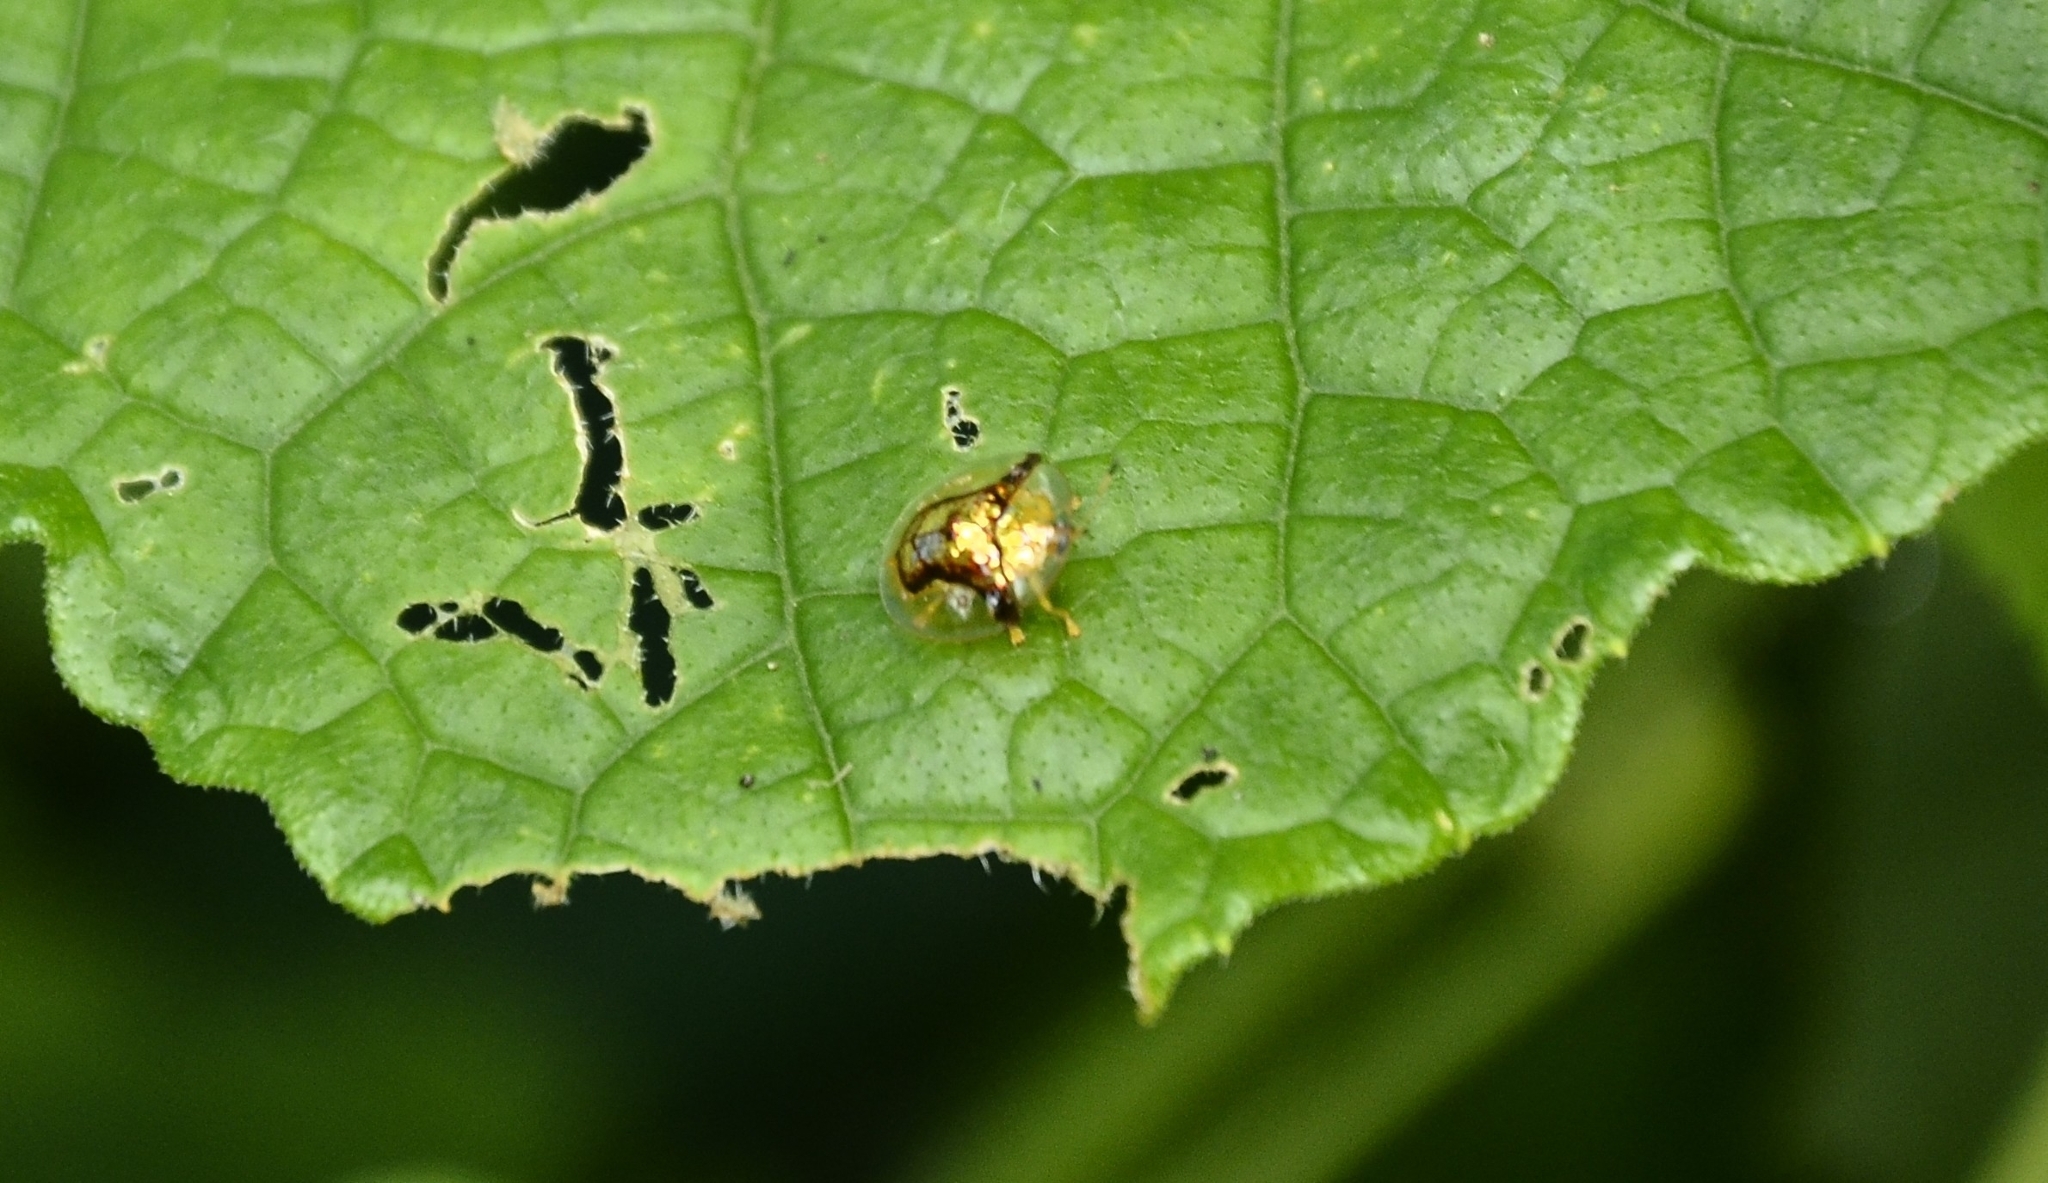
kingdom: Animalia
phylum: Arthropoda
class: Insecta
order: Coleoptera
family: Chrysomelidae
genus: Aspidimorpha
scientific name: Aspidimorpha furcata
